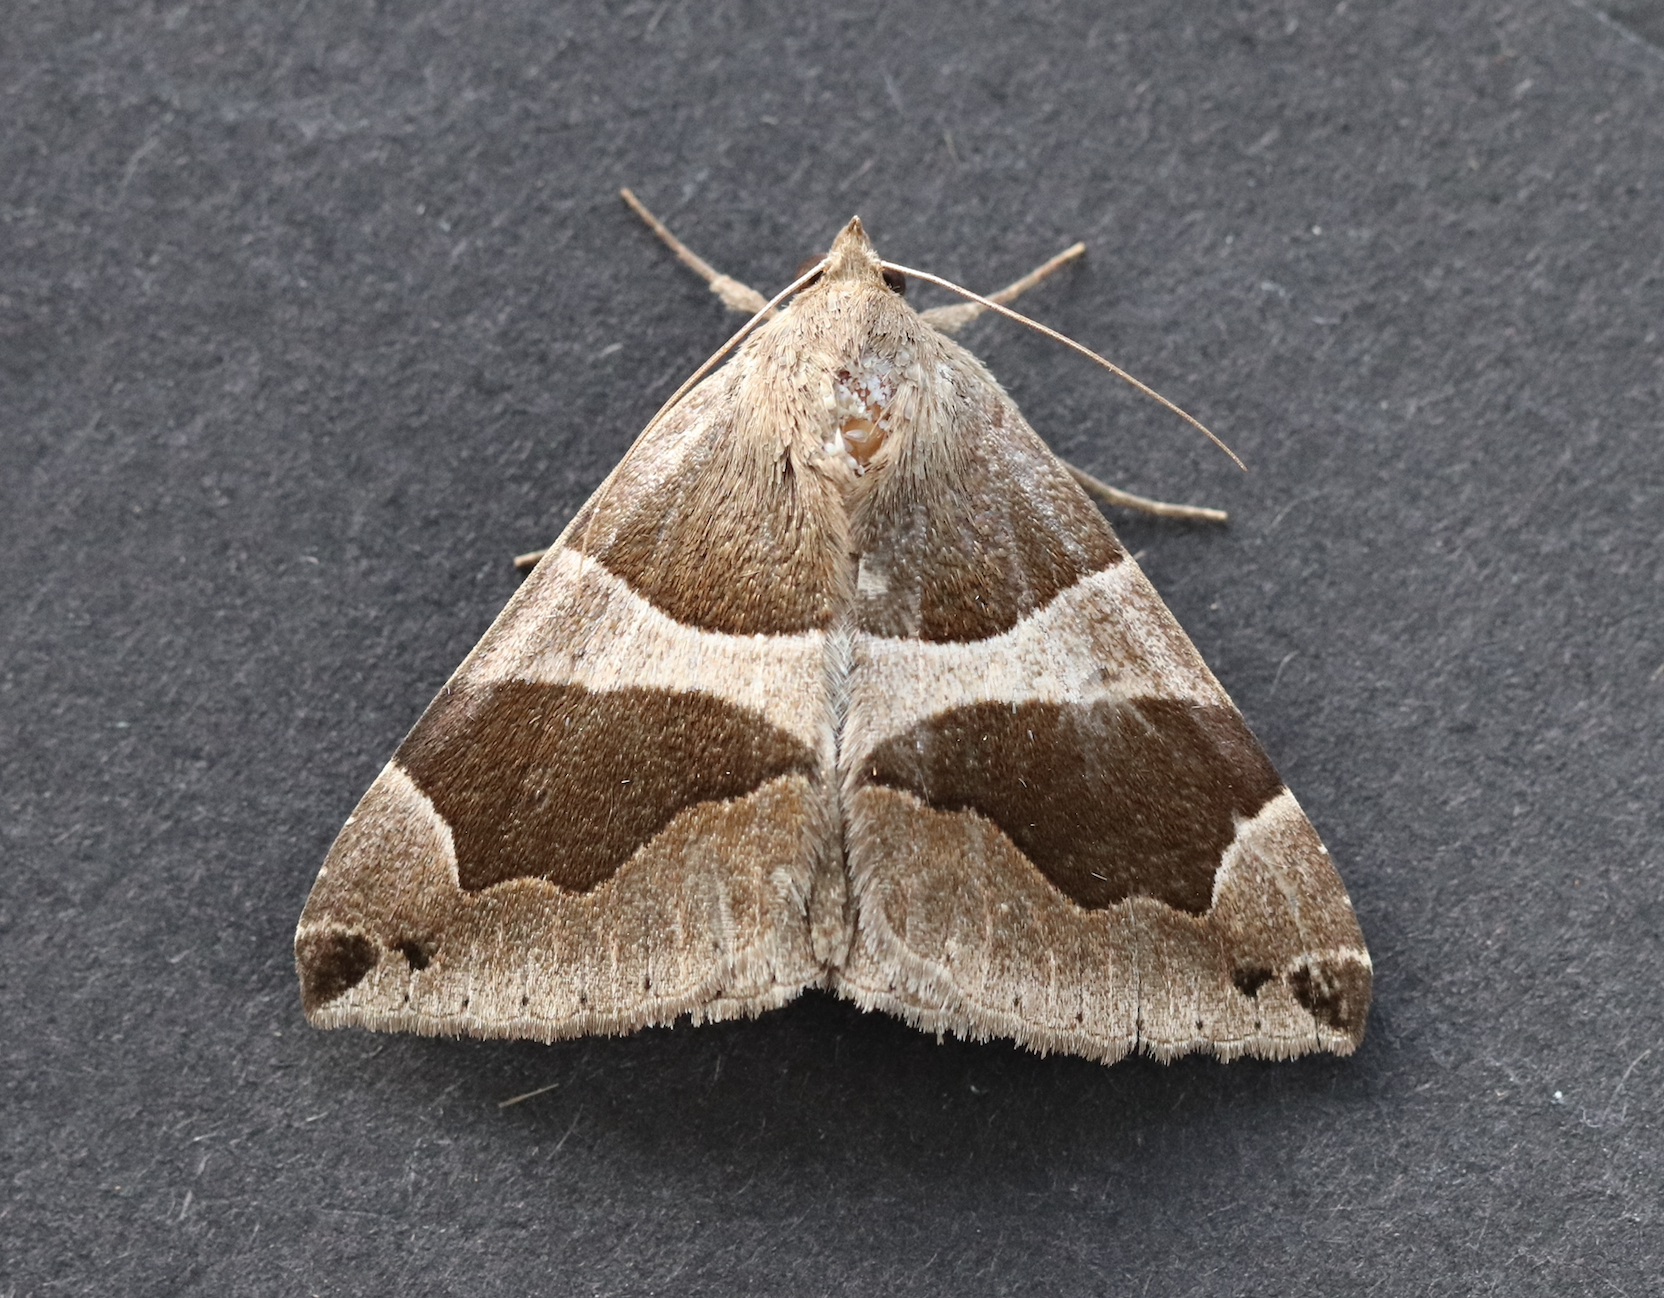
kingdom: Animalia
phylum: Arthropoda
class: Insecta
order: Lepidoptera
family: Erebidae
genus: Dysgonia
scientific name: Dysgonia algira
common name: Passenger
